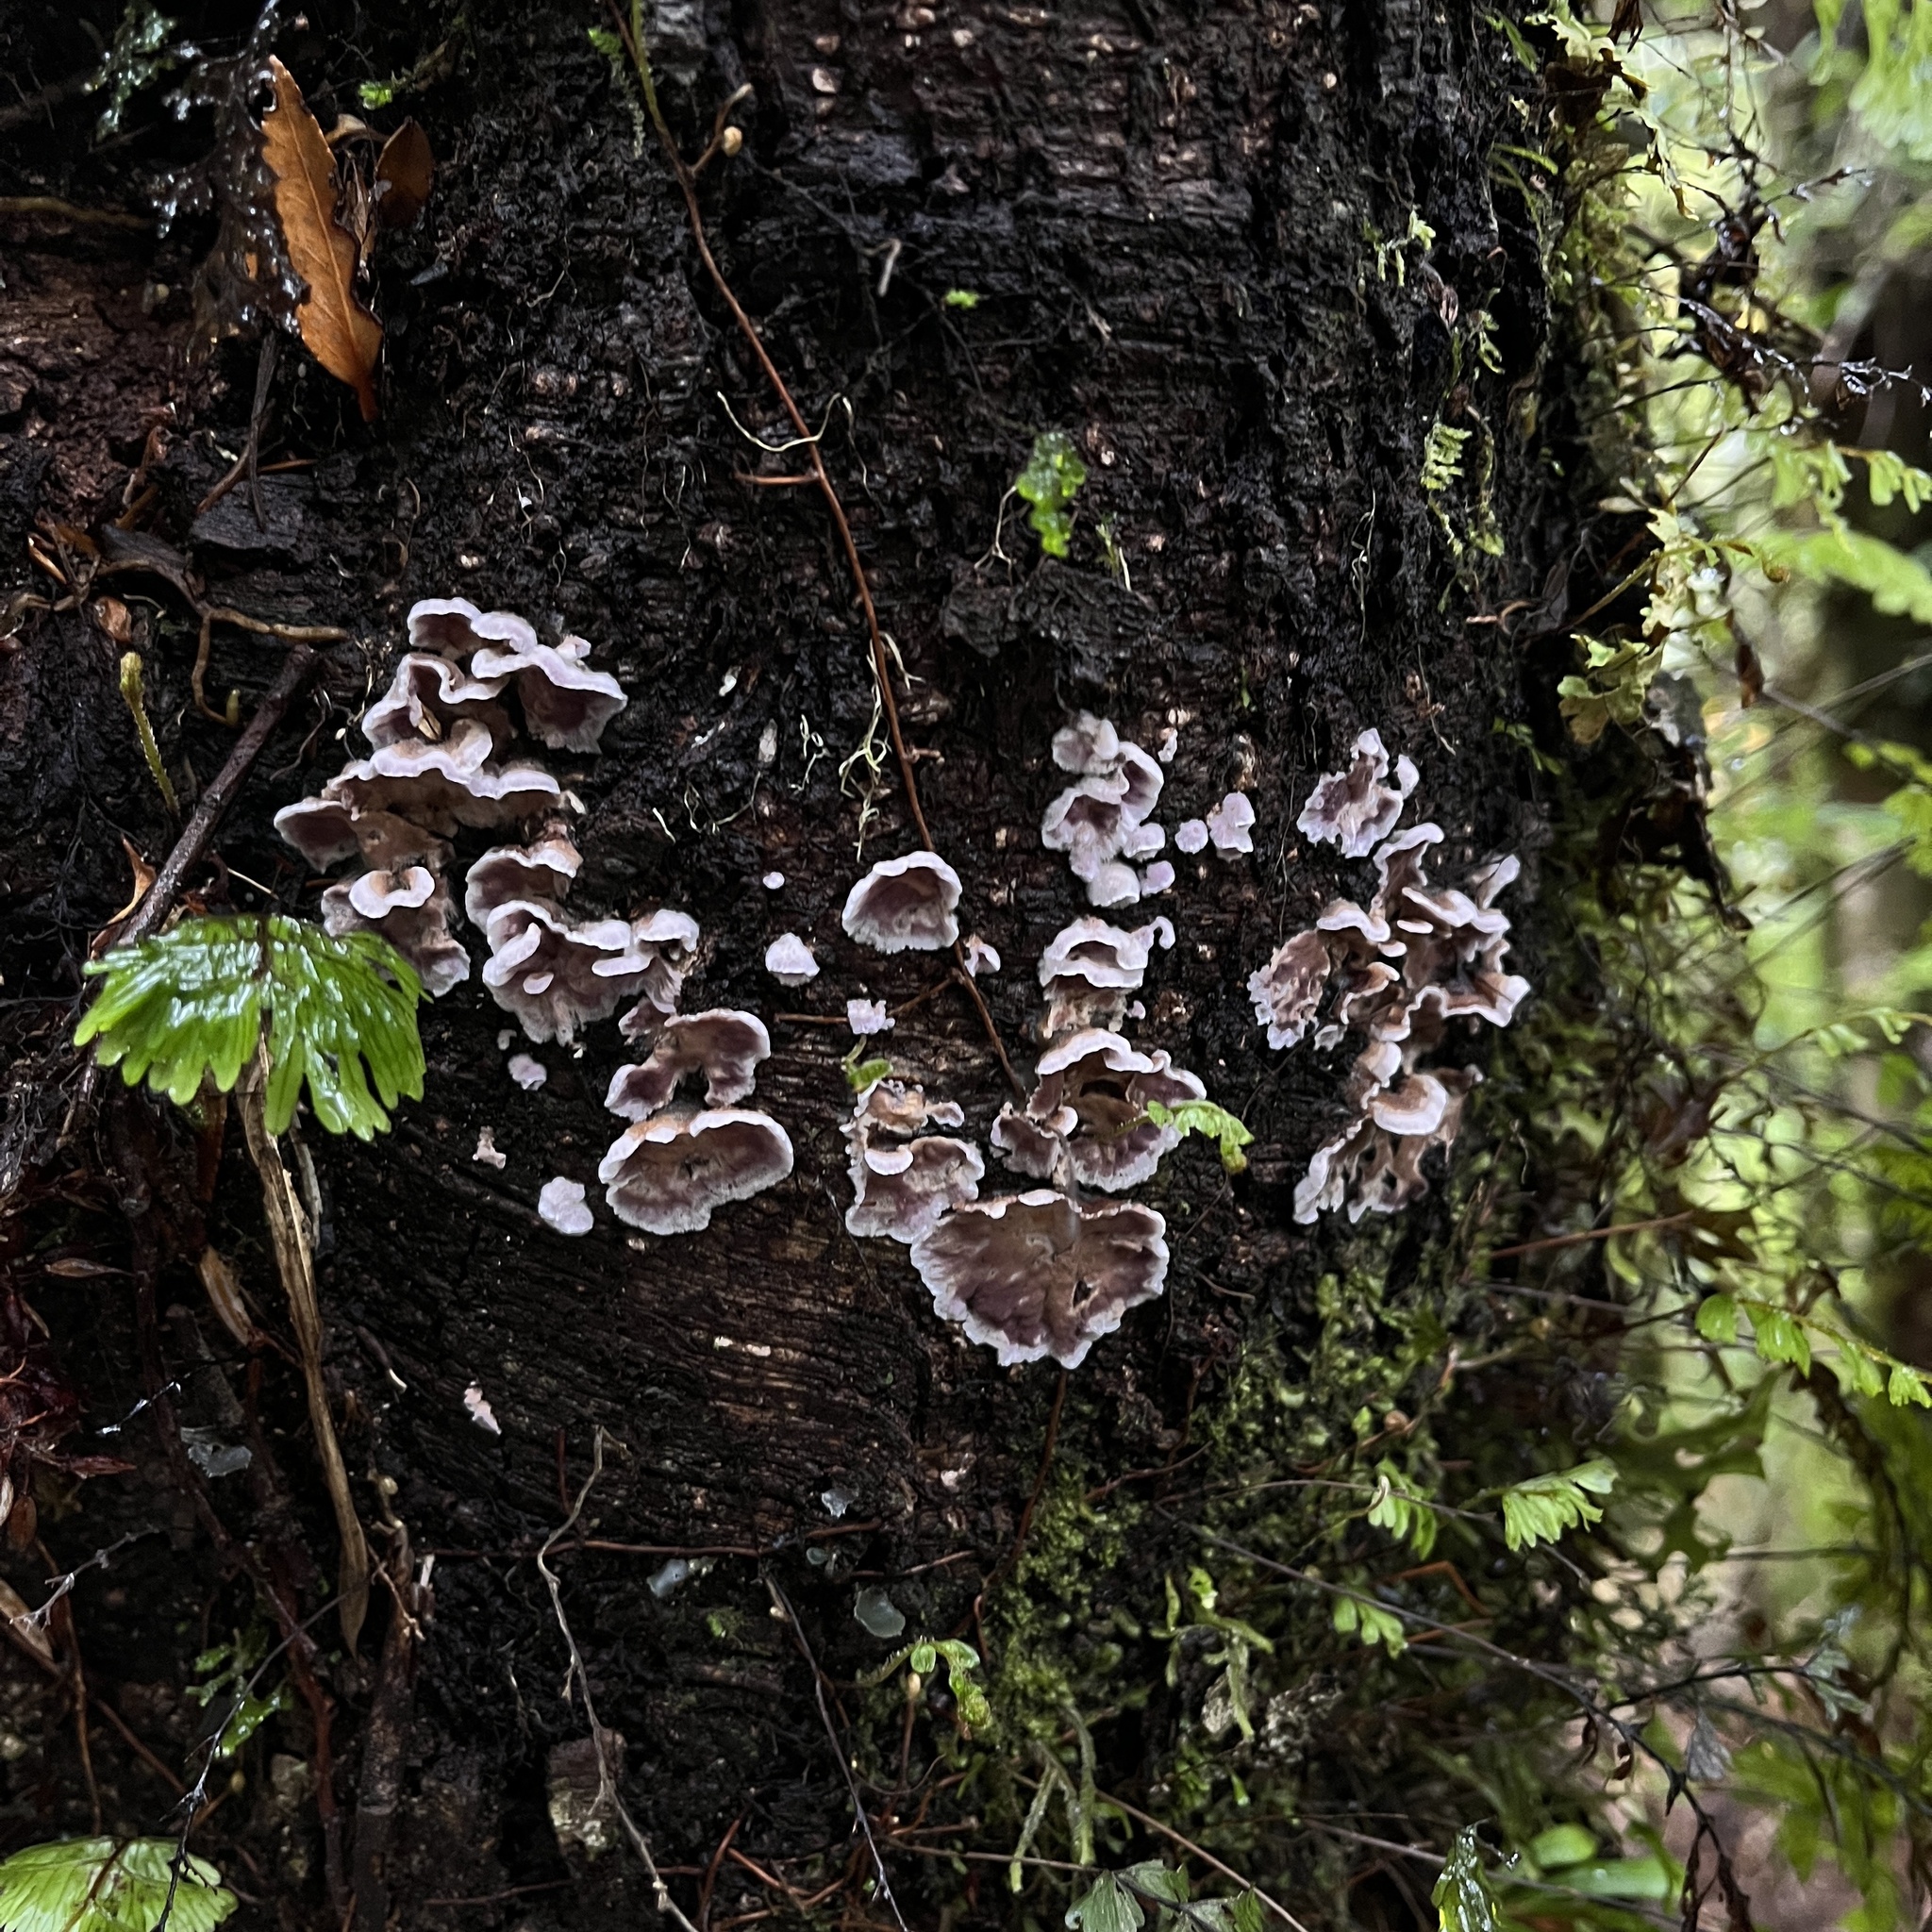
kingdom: Fungi
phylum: Basidiomycota
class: Agaricomycetes
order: Agaricales
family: Cyphellaceae
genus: Chondrostereum
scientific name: Chondrostereum purpureum
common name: Silver leaf disease
